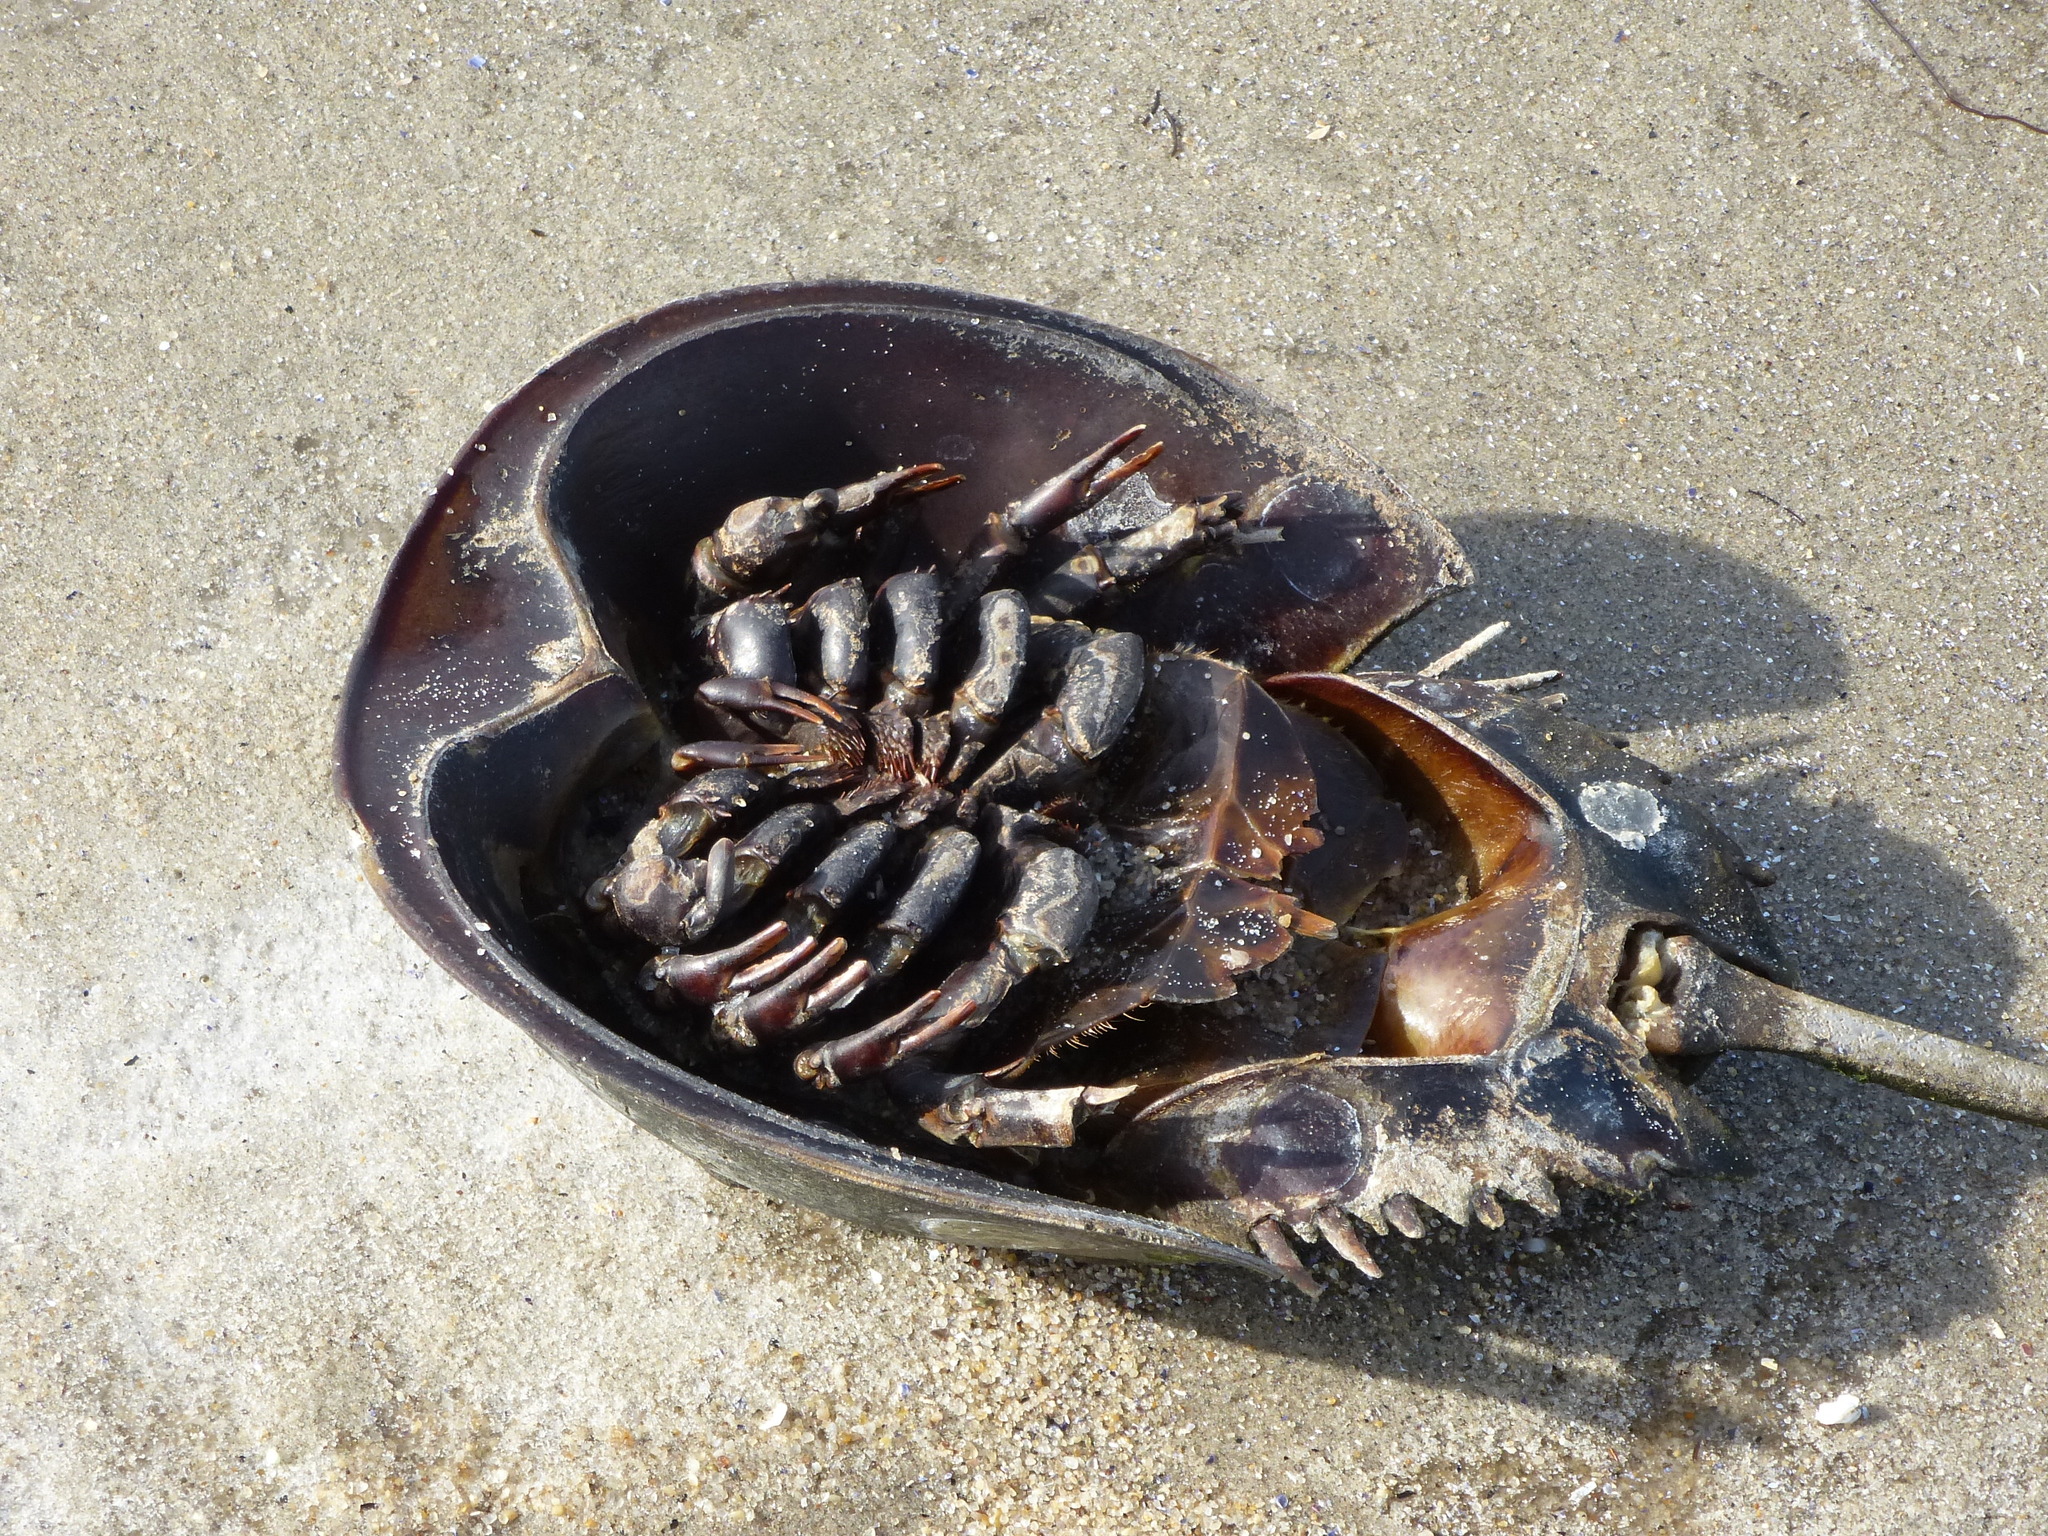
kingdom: Animalia
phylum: Arthropoda
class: Merostomata
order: Xiphosurida
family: Limulidae
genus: Limulus
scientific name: Limulus polyphemus
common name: Horseshoe crab
